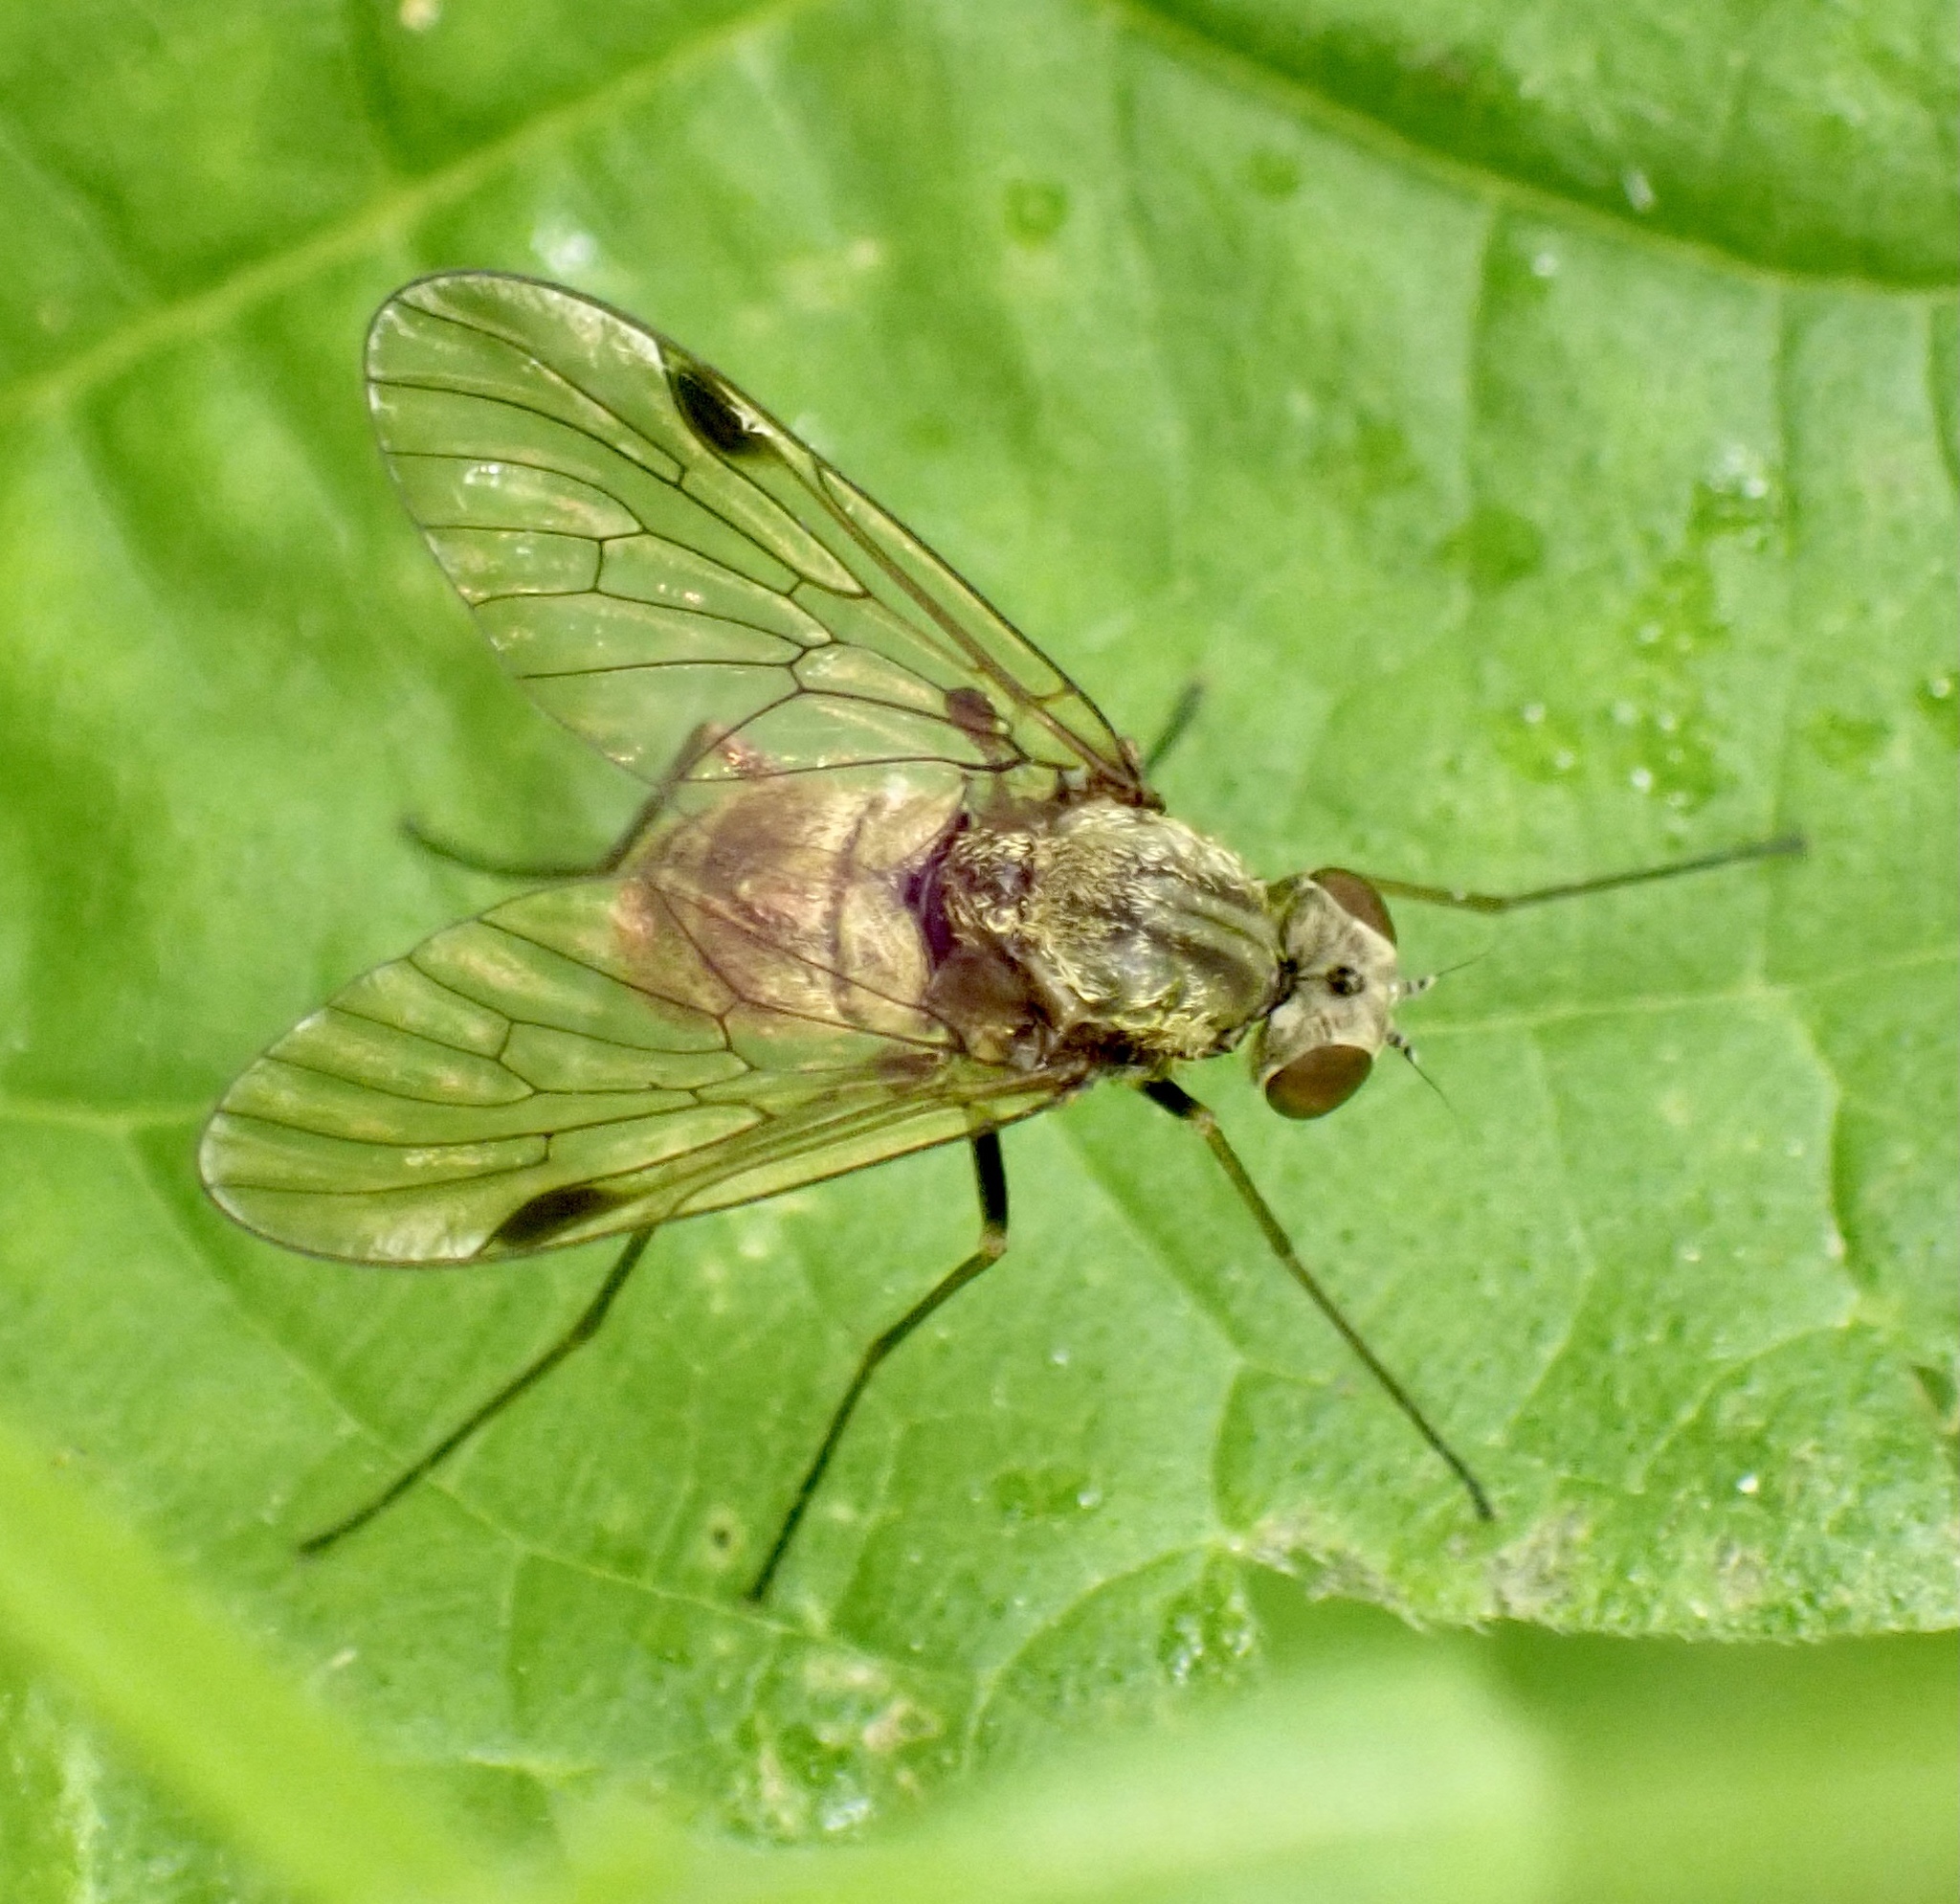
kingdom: Animalia
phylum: Arthropoda
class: Insecta
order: Diptera
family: Rhagionidae
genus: Chrysopilus
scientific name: Chrysopilus cristatus
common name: Black snipefly
